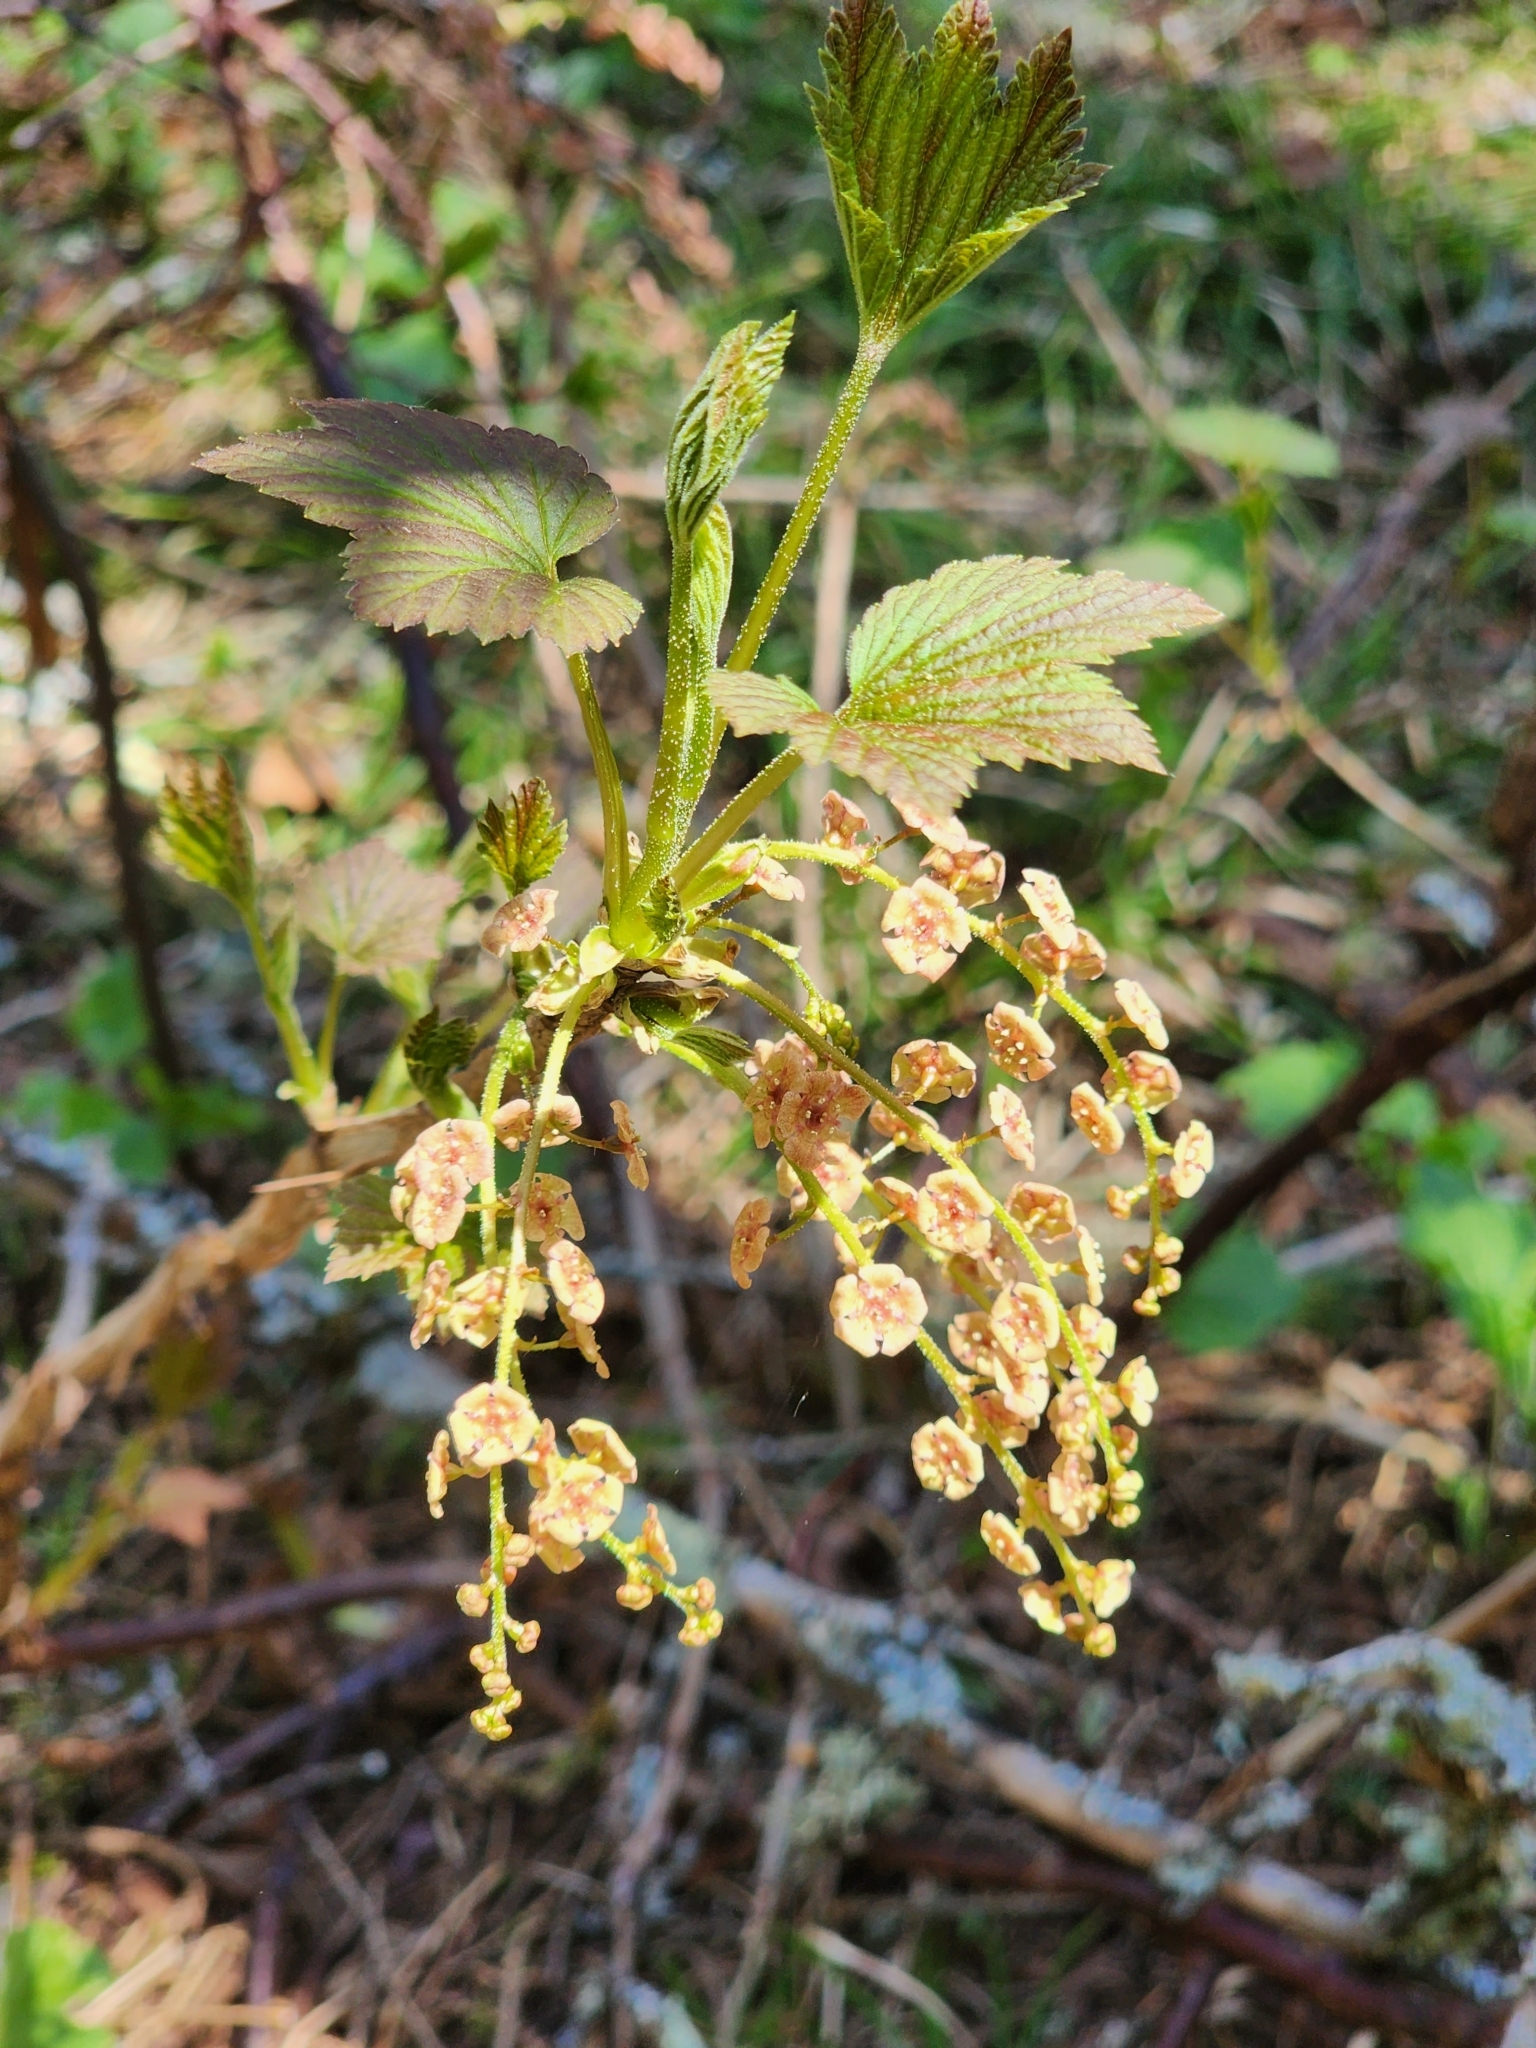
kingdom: Plantae
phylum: Tracheophyta
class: Magnoliopsida
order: Saxifragales
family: Grossulariaceae
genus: Ribes
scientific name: Ribes triste
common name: Swamp red currant
